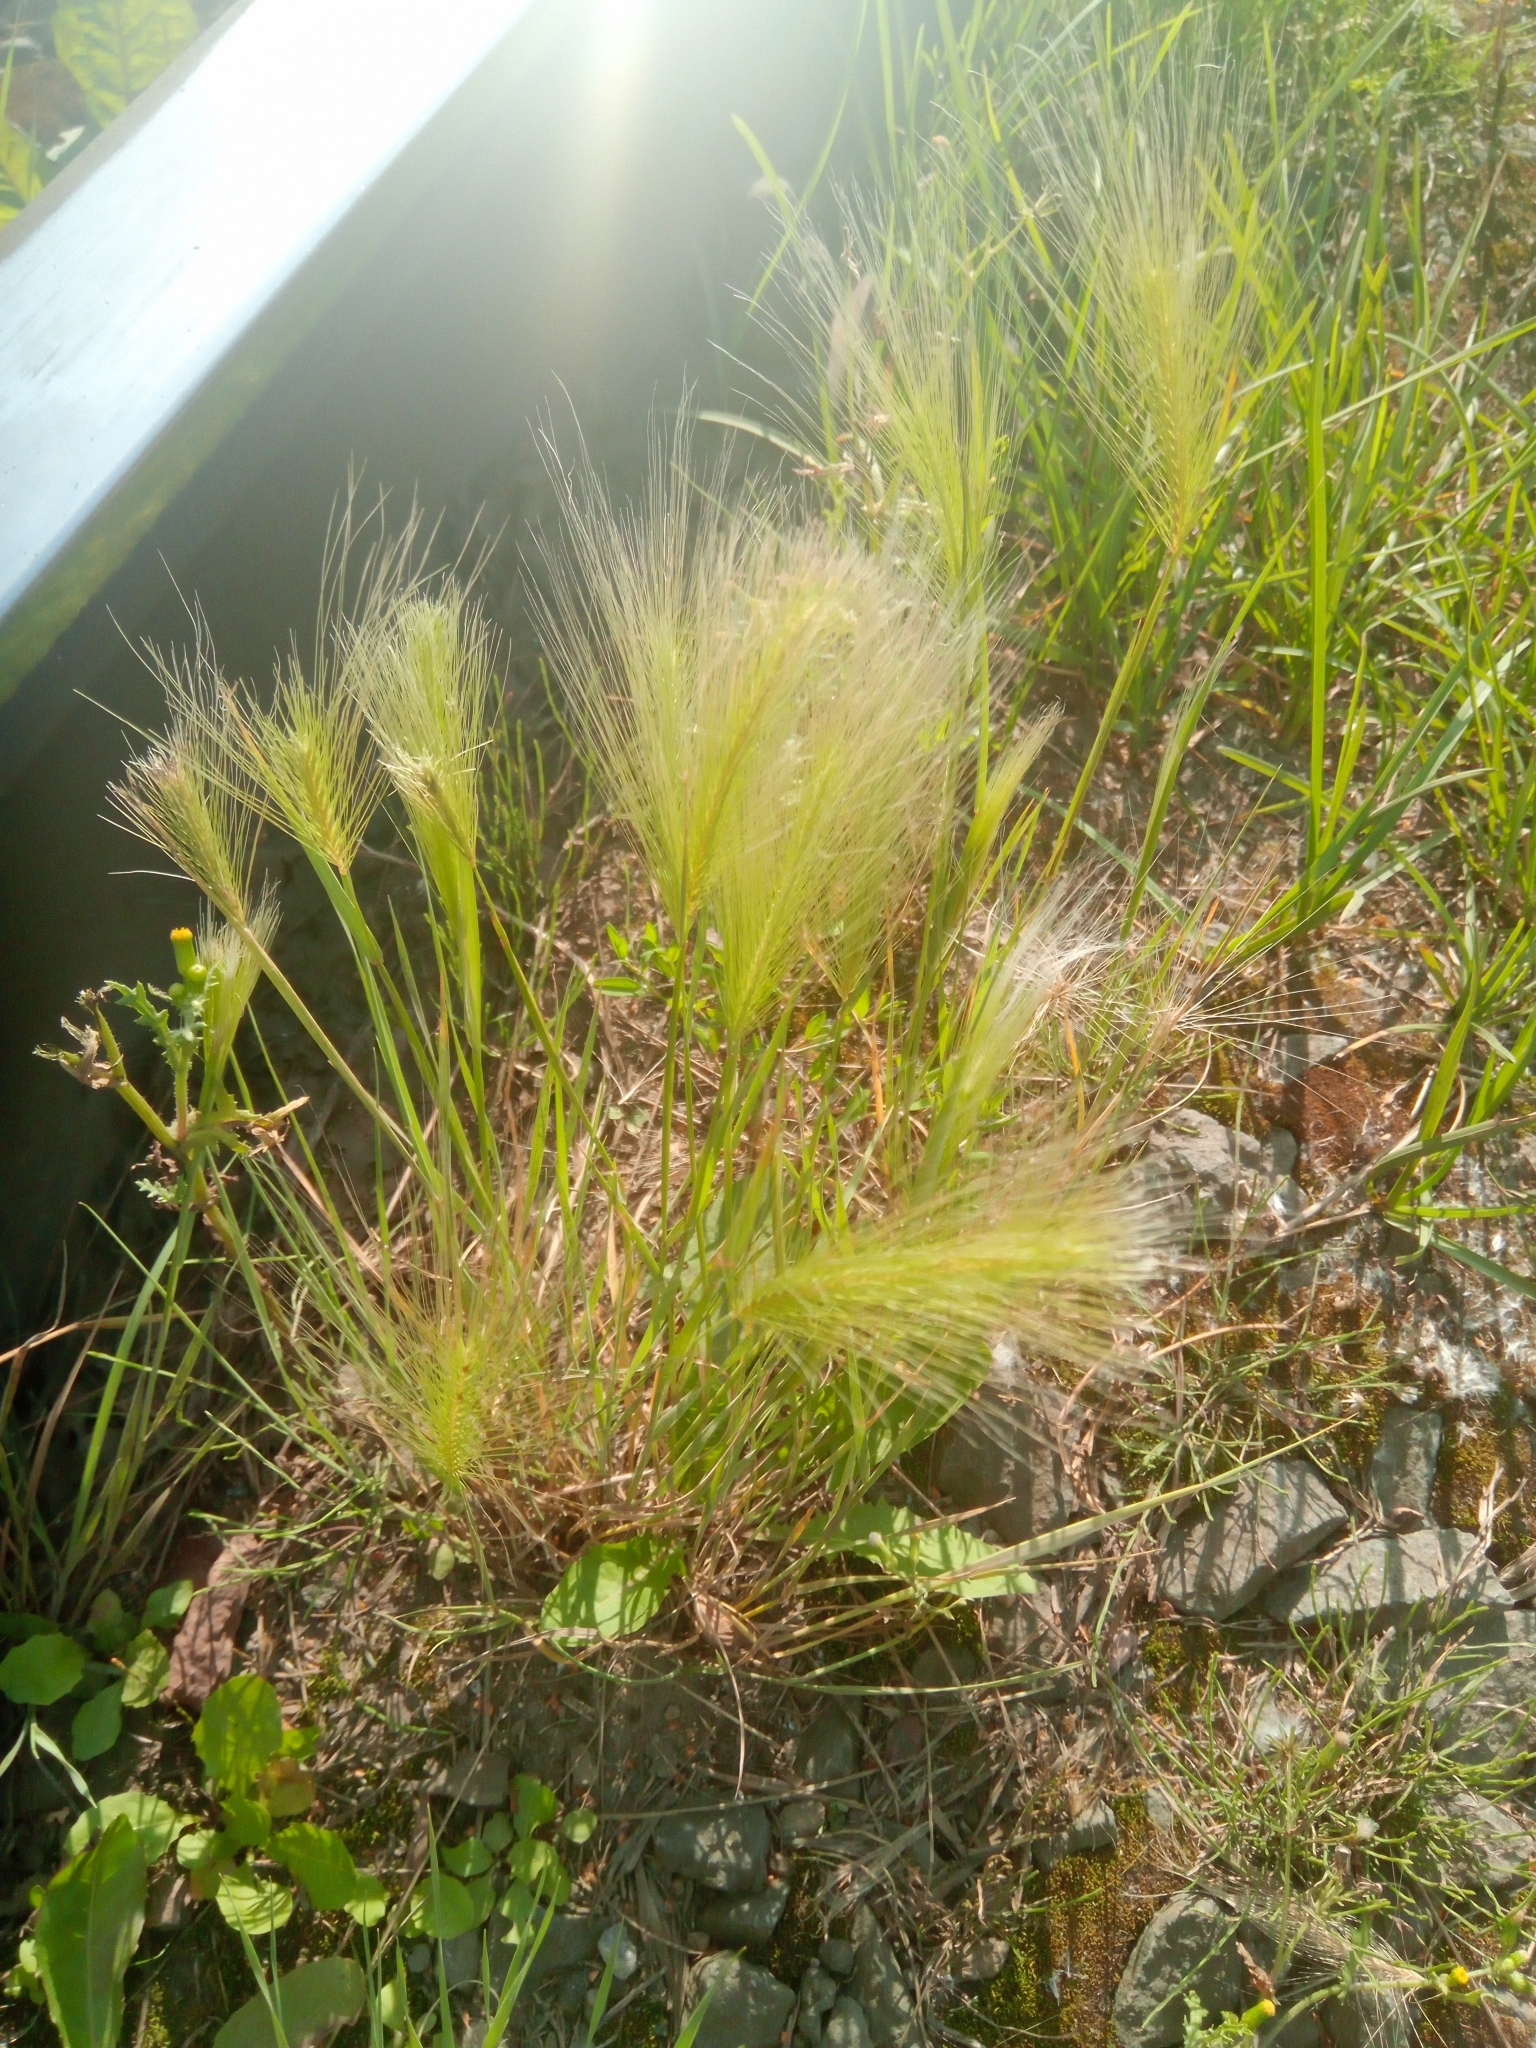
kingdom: Plantae
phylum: Tracheophyta
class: Liliopsida
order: Poales
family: Poaceae
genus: Hordeum
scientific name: Hordeum jubatum
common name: Foxtail barley
